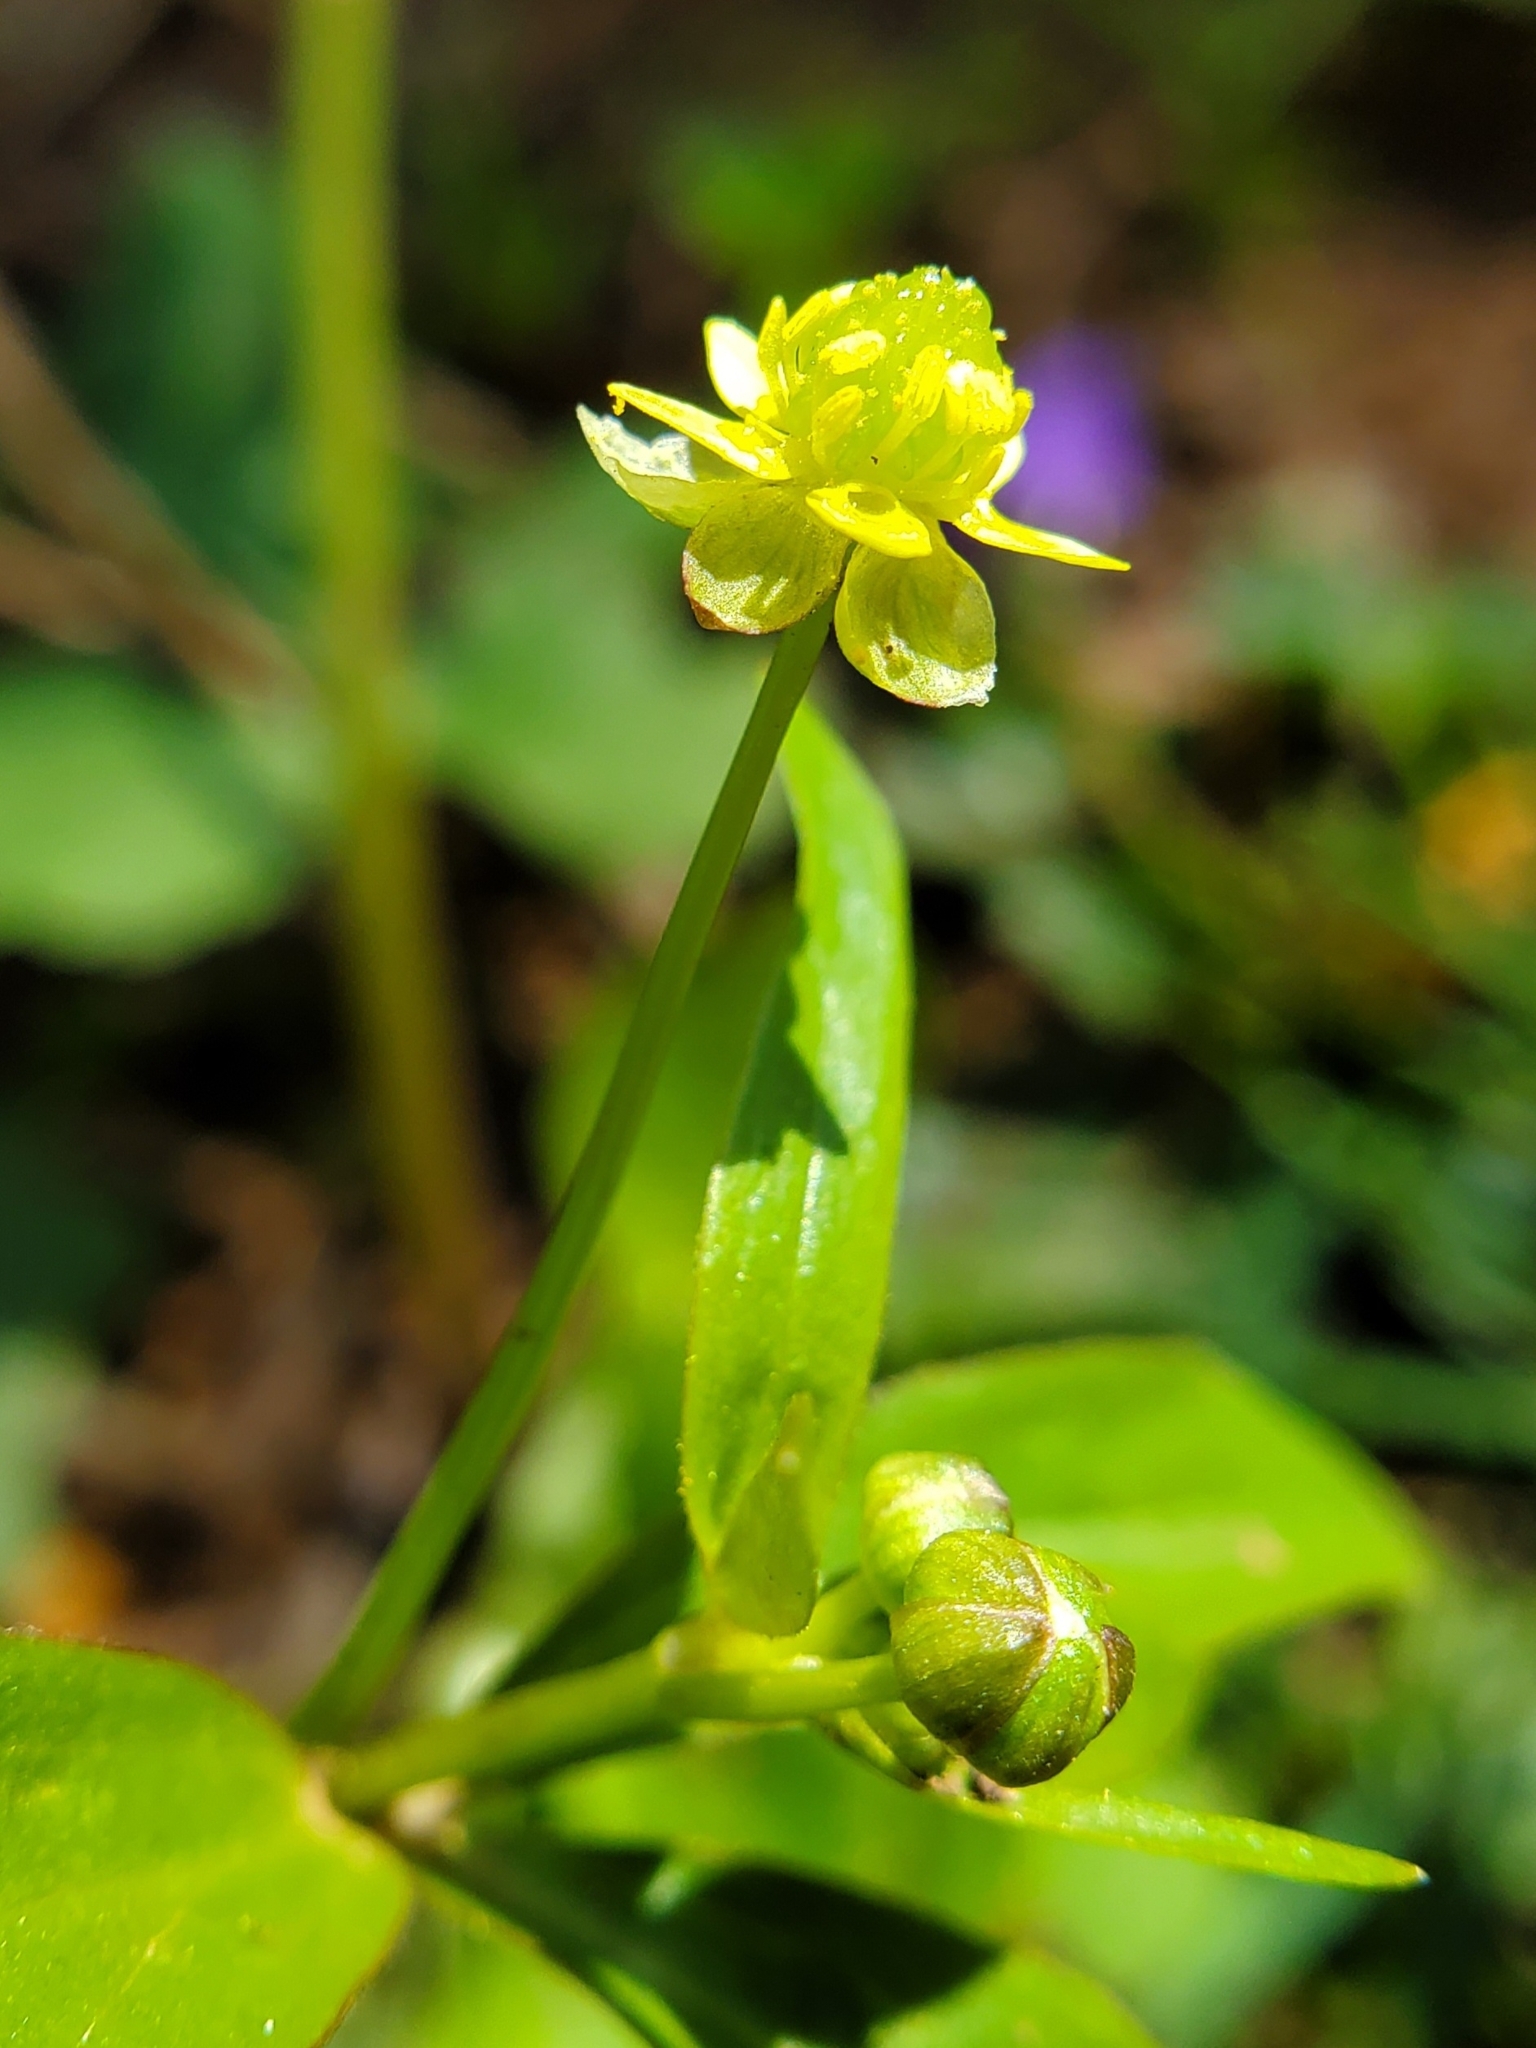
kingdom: Plantae
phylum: Tracheophyta
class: Magnoliopsida
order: Ranunculales
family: Ranunculaceae
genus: Ranunculus
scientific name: Ranunculus abortivus
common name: Early wood buttercup
